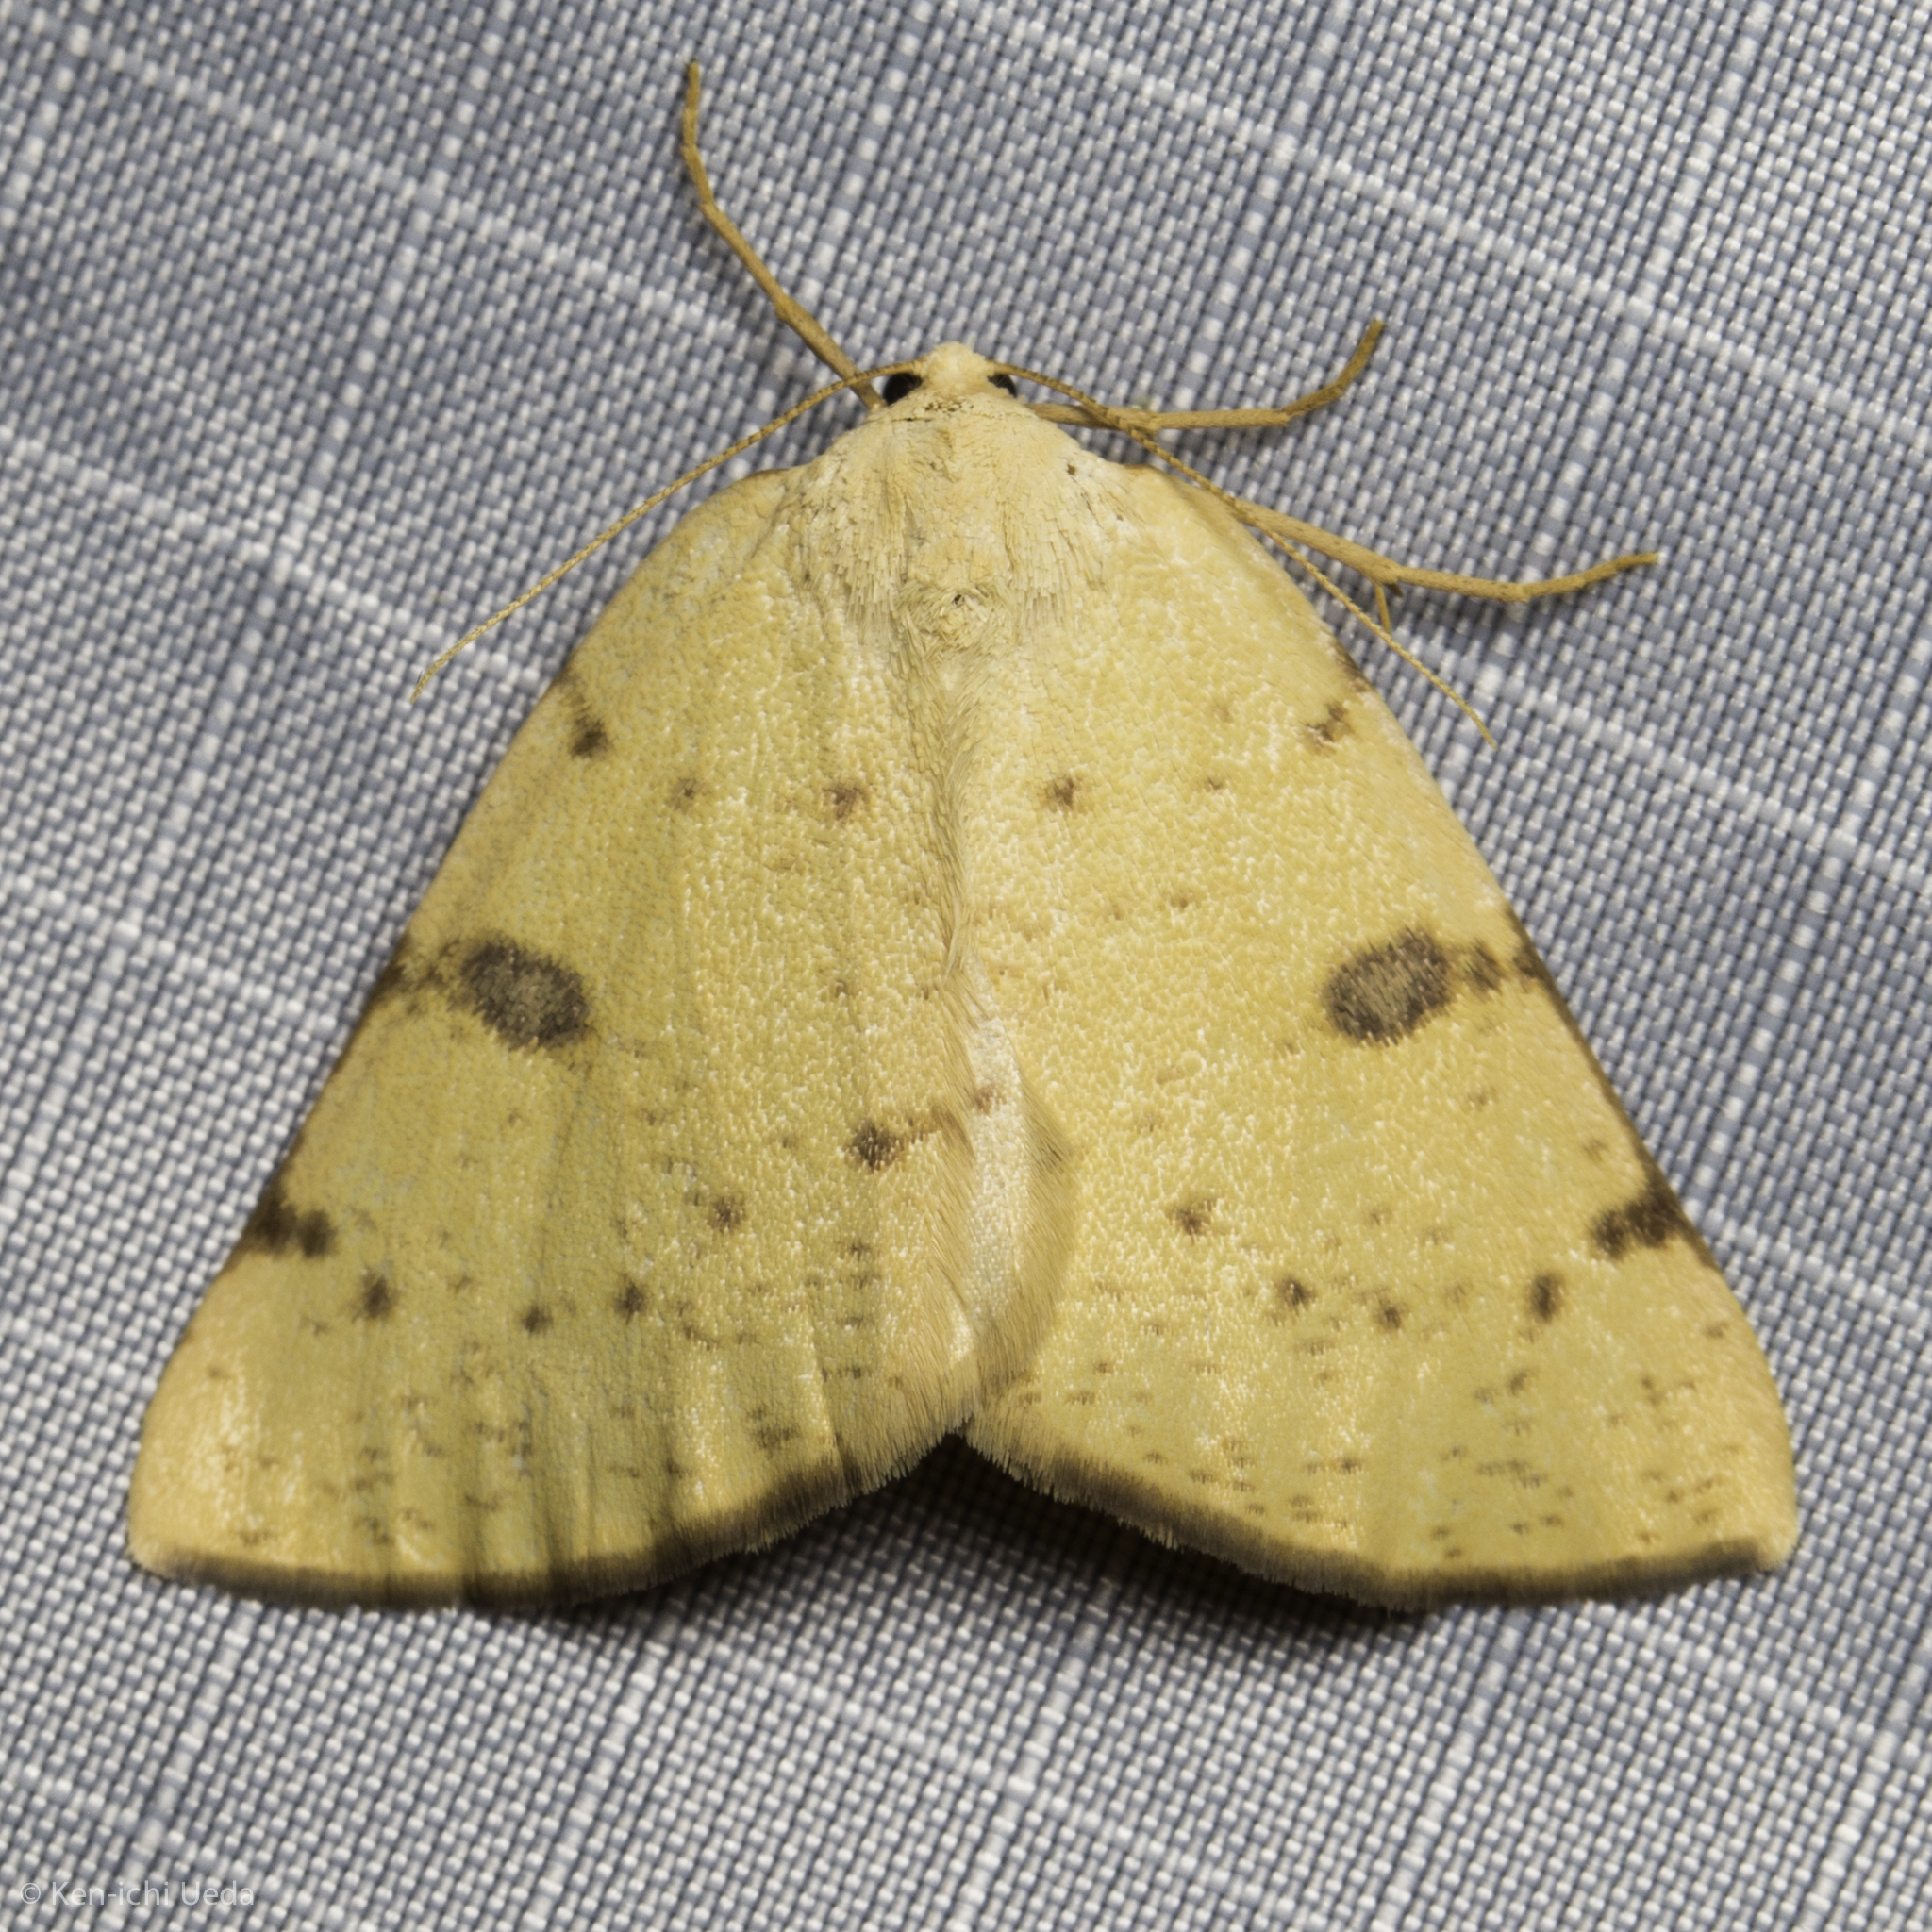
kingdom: Animalia
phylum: Arthropoda
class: Insecta
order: Lepidoptera
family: Geometridae
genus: Hesperumia
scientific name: Hesperumia sulphuraria
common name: Sulphur moth
